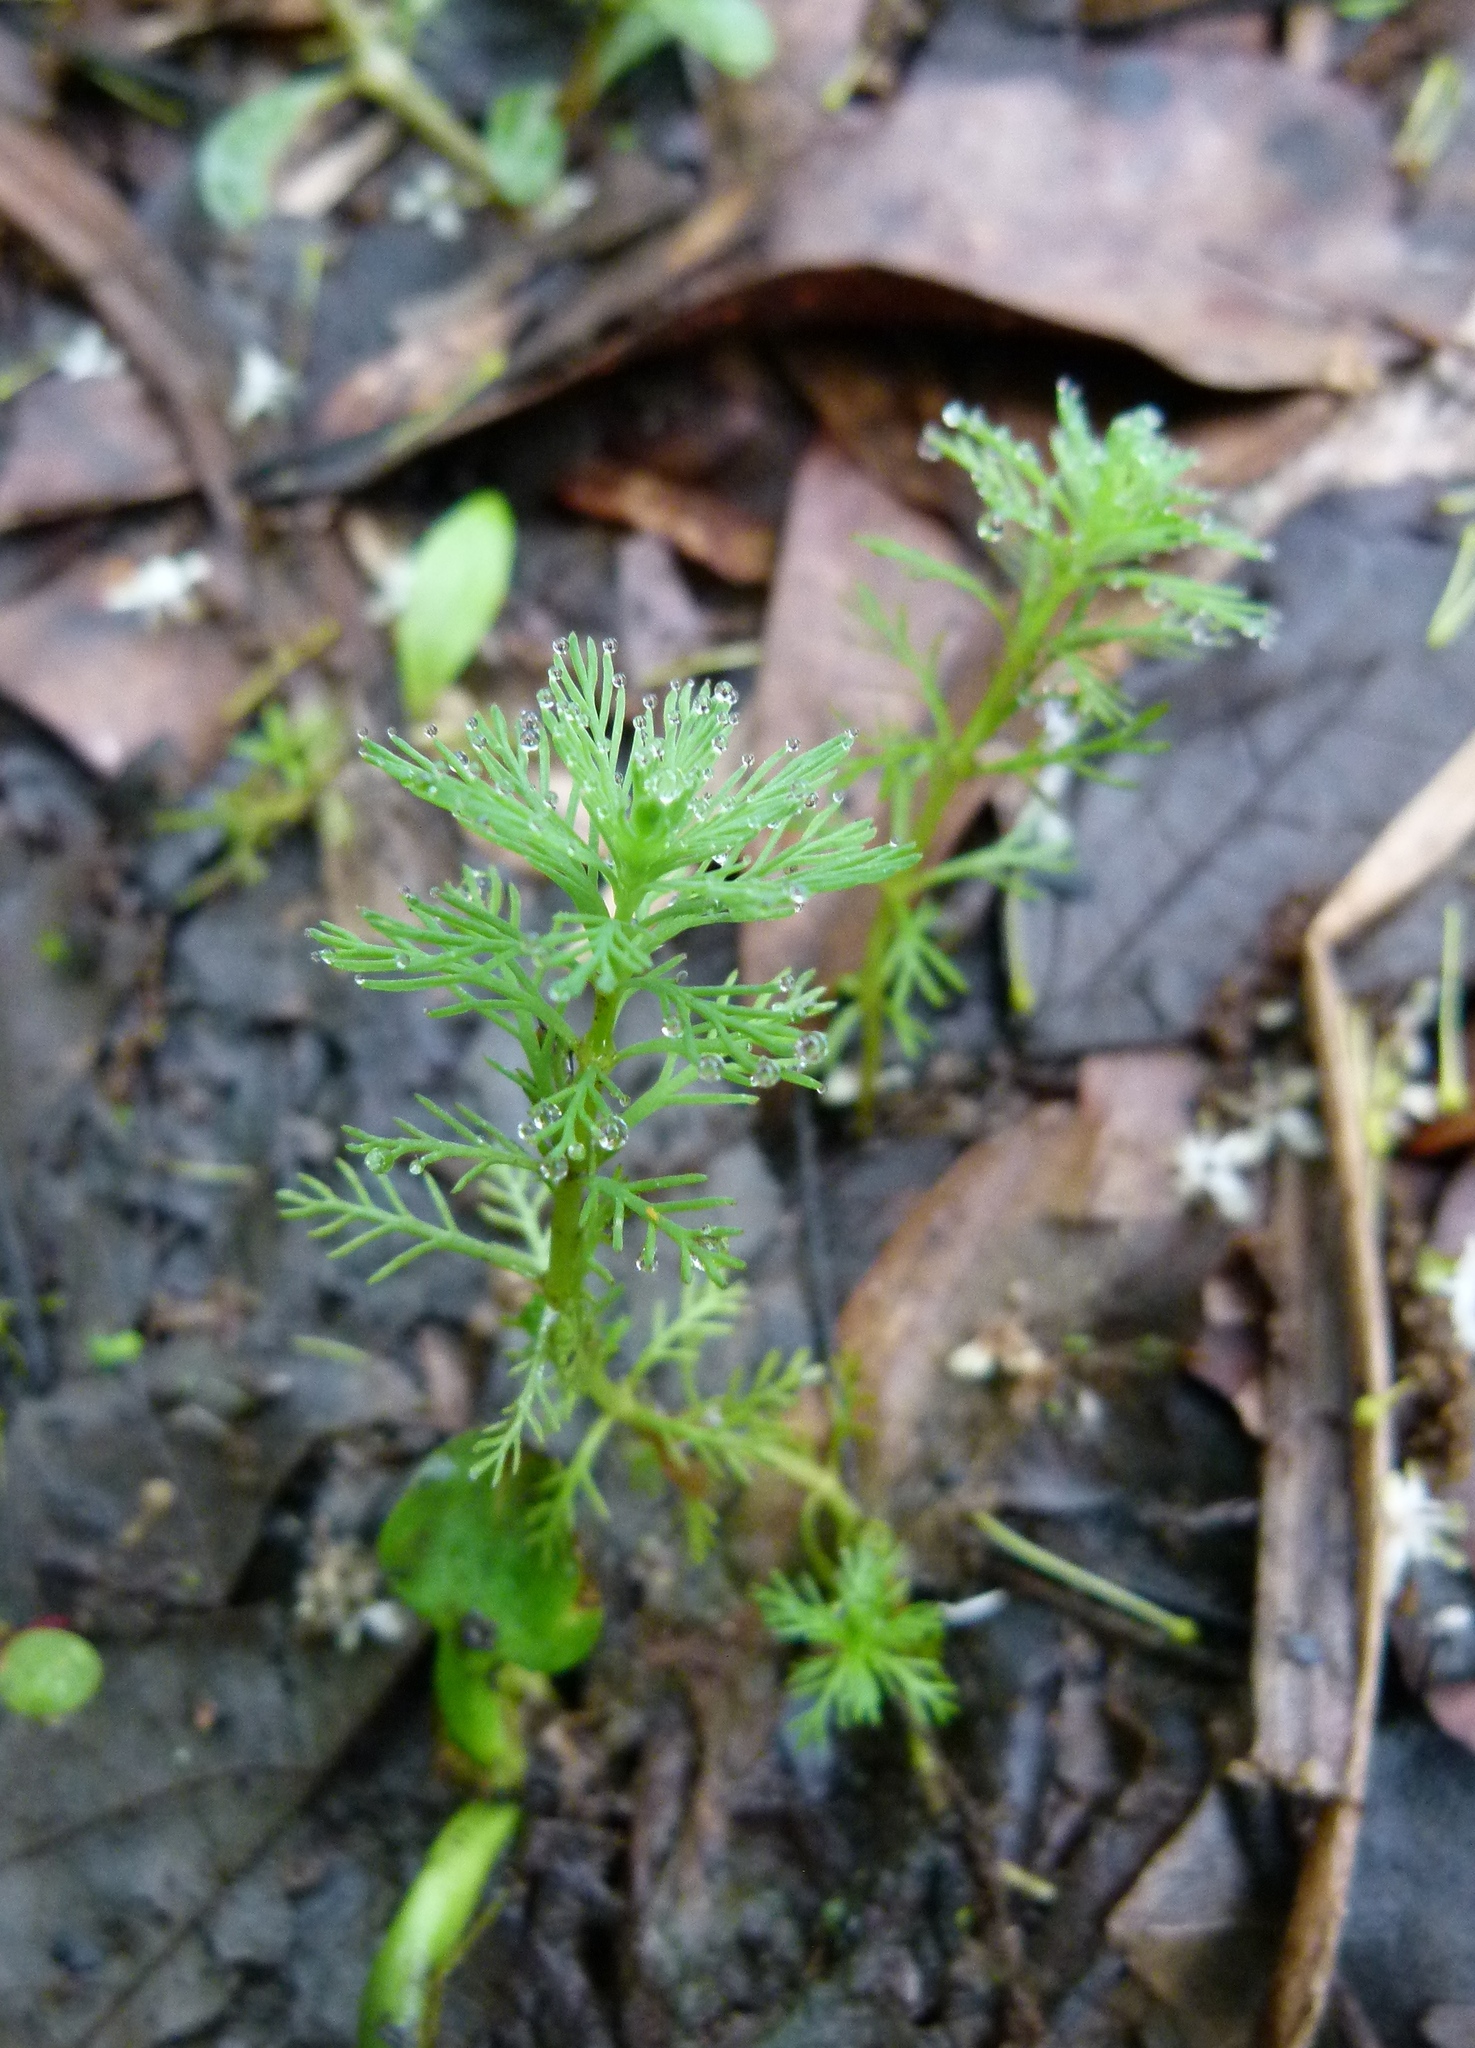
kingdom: Plantae
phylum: Tracheophyta
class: Magnoliopsida
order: Saxifragales
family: Haloragaceae
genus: Myriophyllum
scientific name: Myriophyllum aquaticum
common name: Parrot's feather
